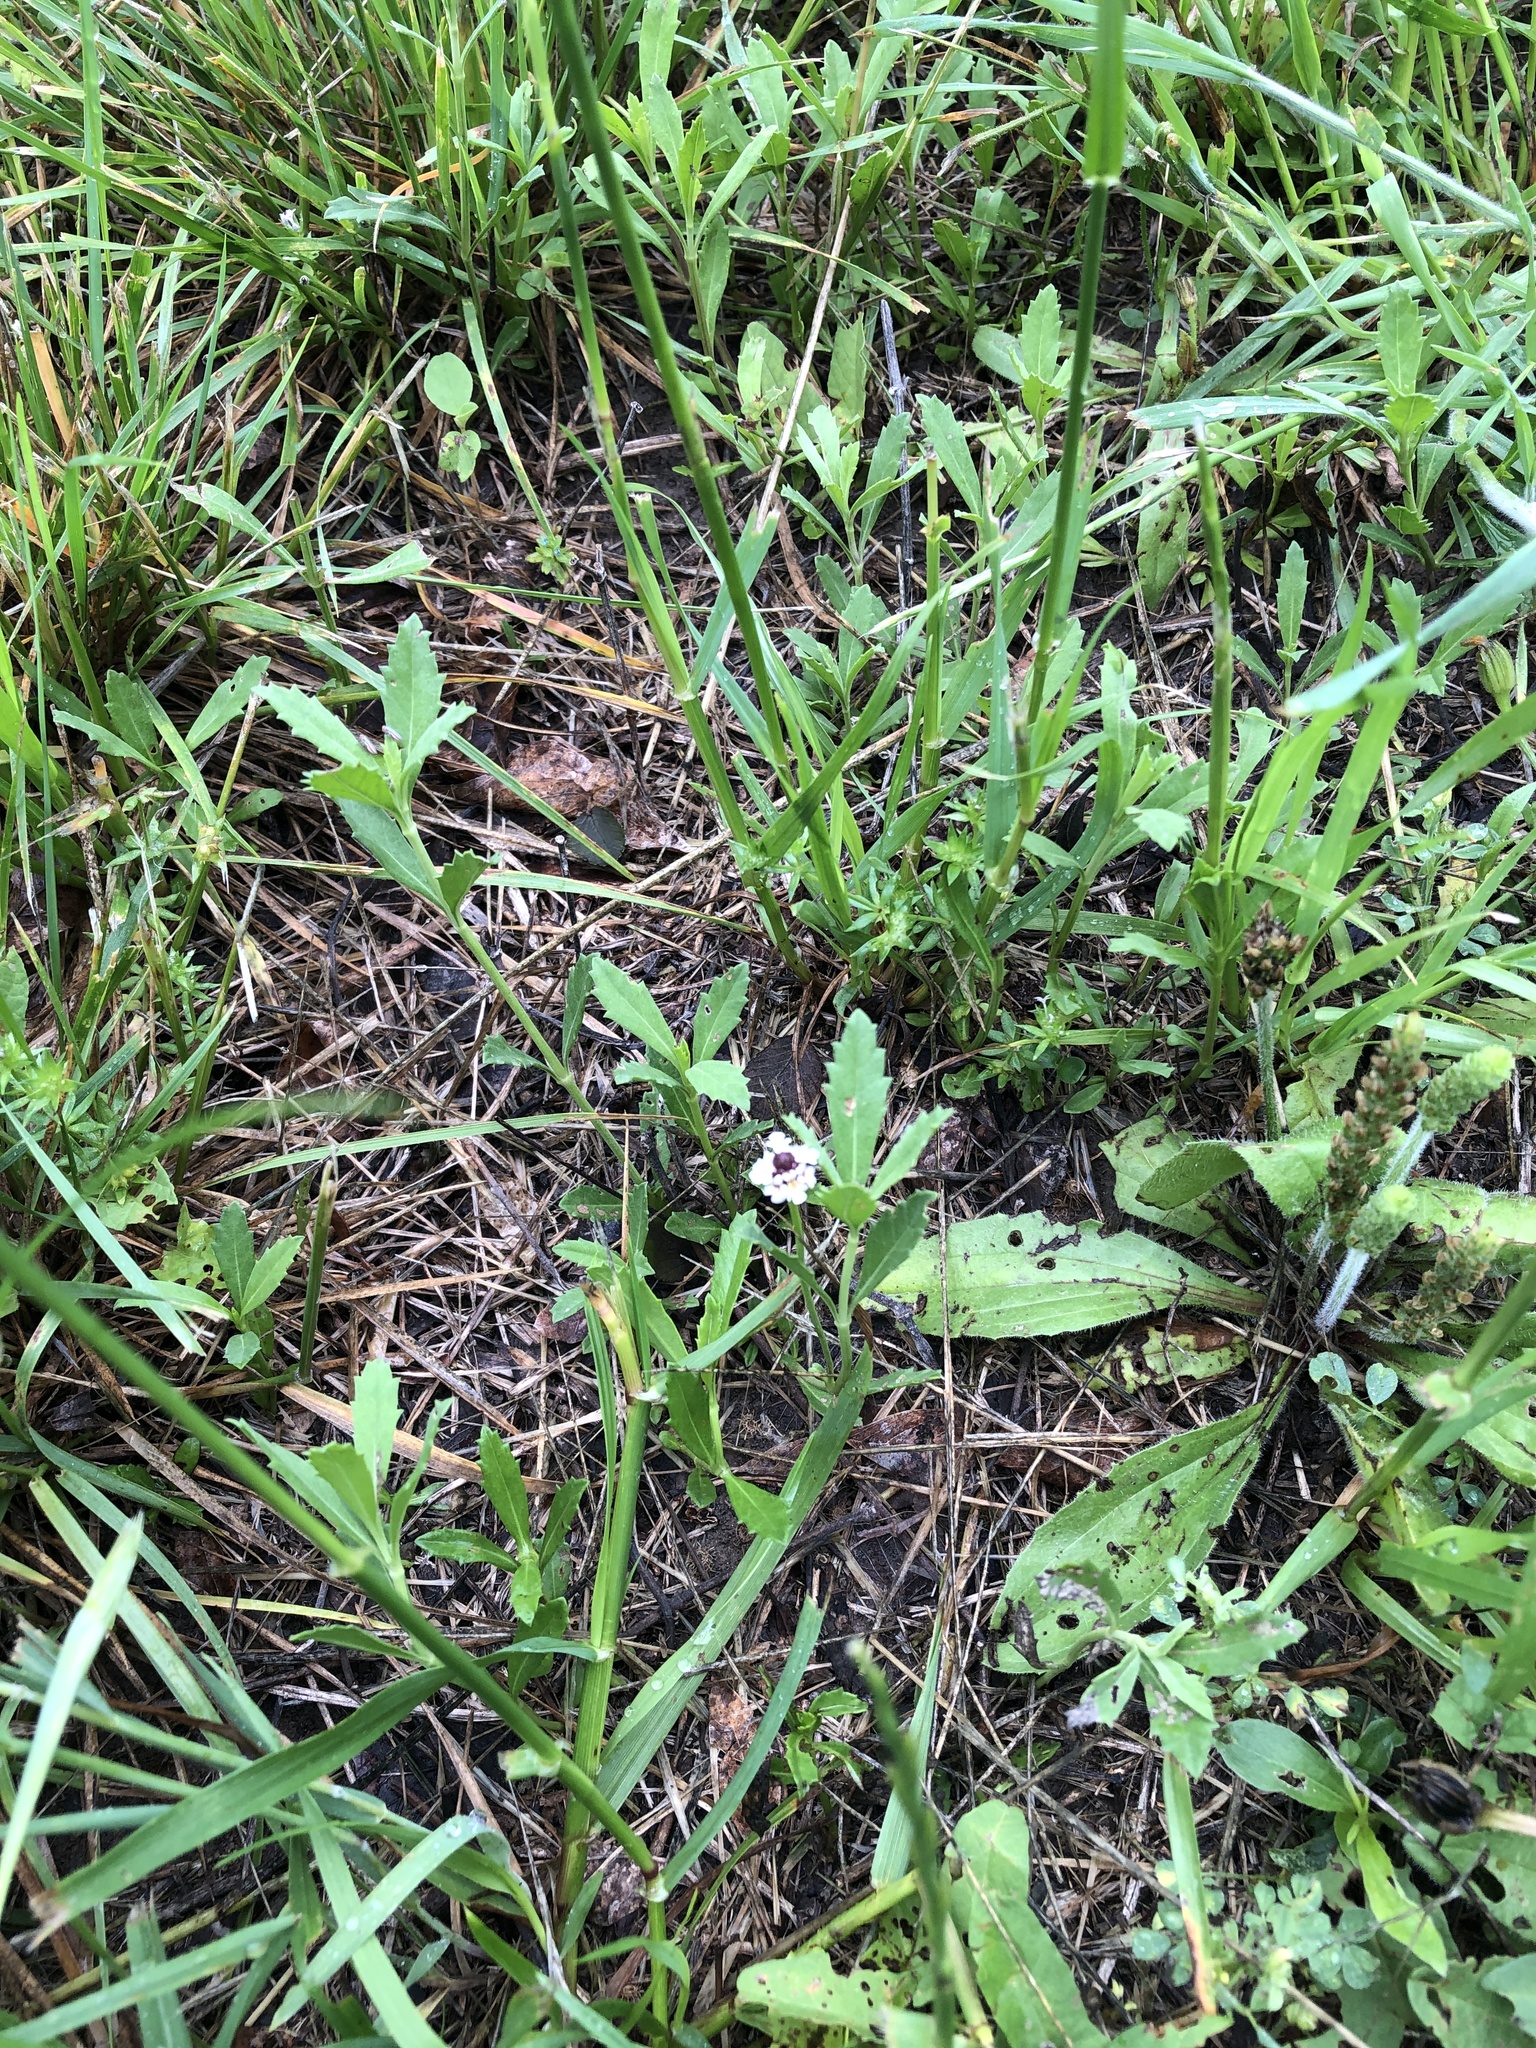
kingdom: Plantae
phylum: Tracheophyta
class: Magnoliopsida
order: Lamiales
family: Verbenaceae
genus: Phyla
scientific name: Phyla nodiflora
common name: Frogfruit
